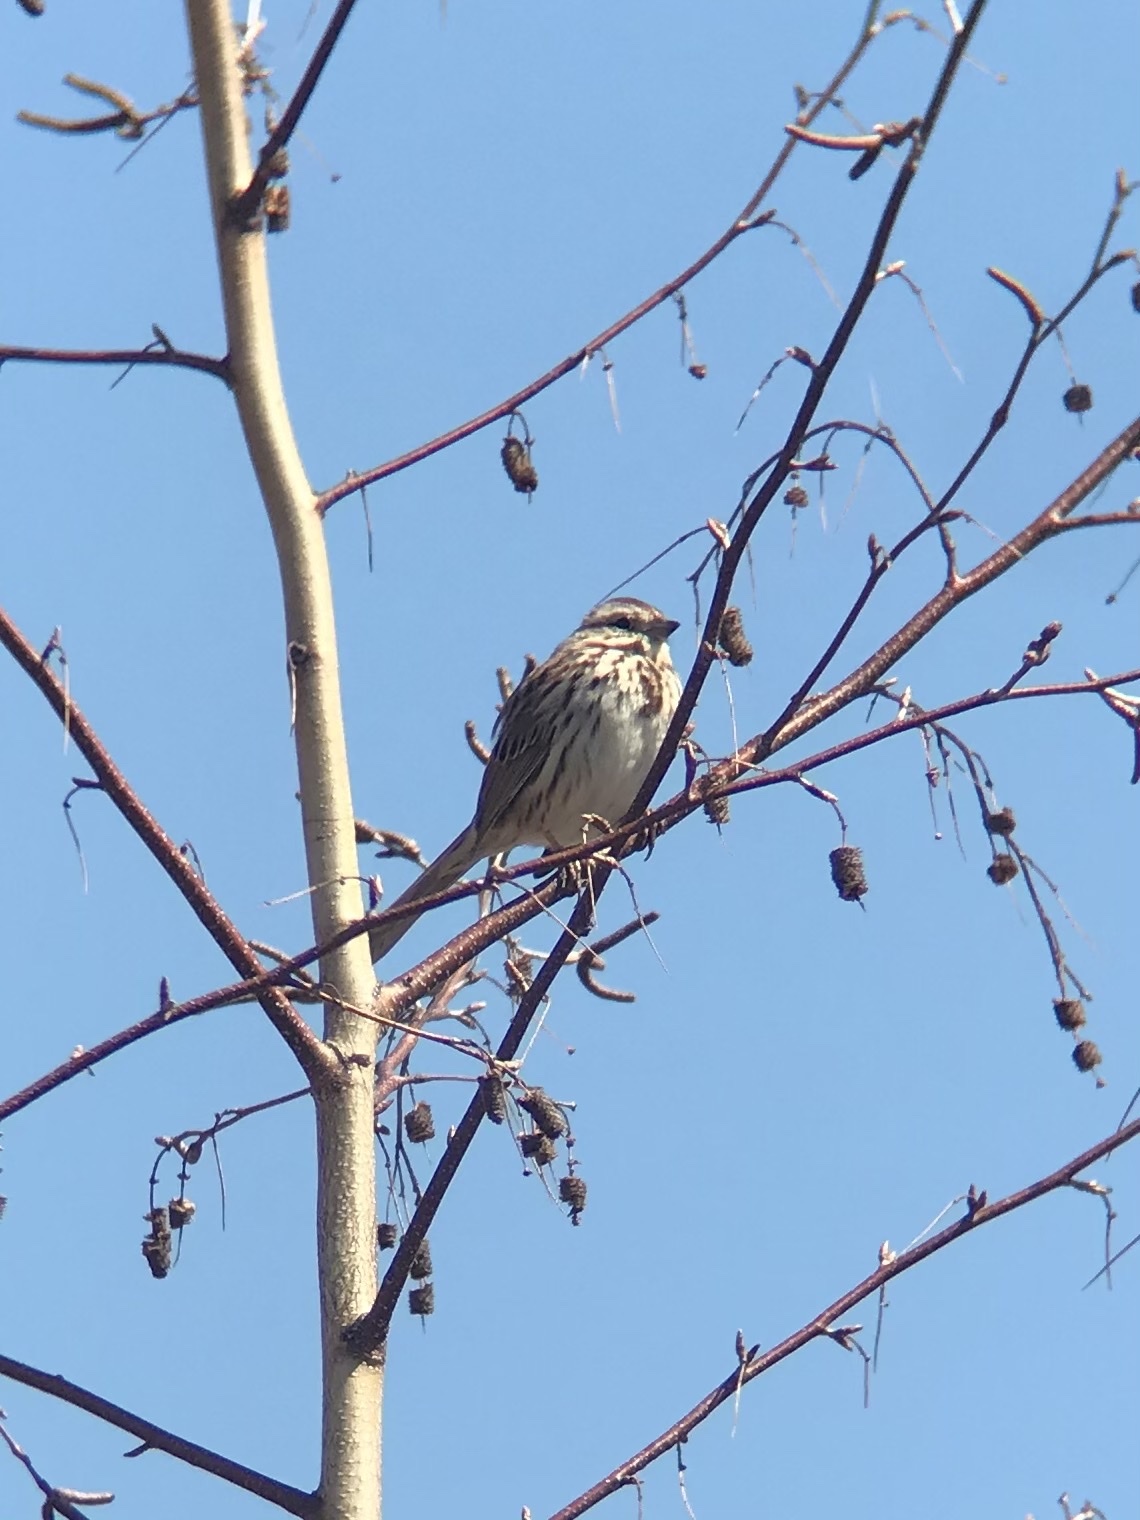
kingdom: Animalia
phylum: Chordata
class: Aves
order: Passeriformes
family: Passerellidae
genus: Melospiza
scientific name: Melospiza melodia
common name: Song sparrow
